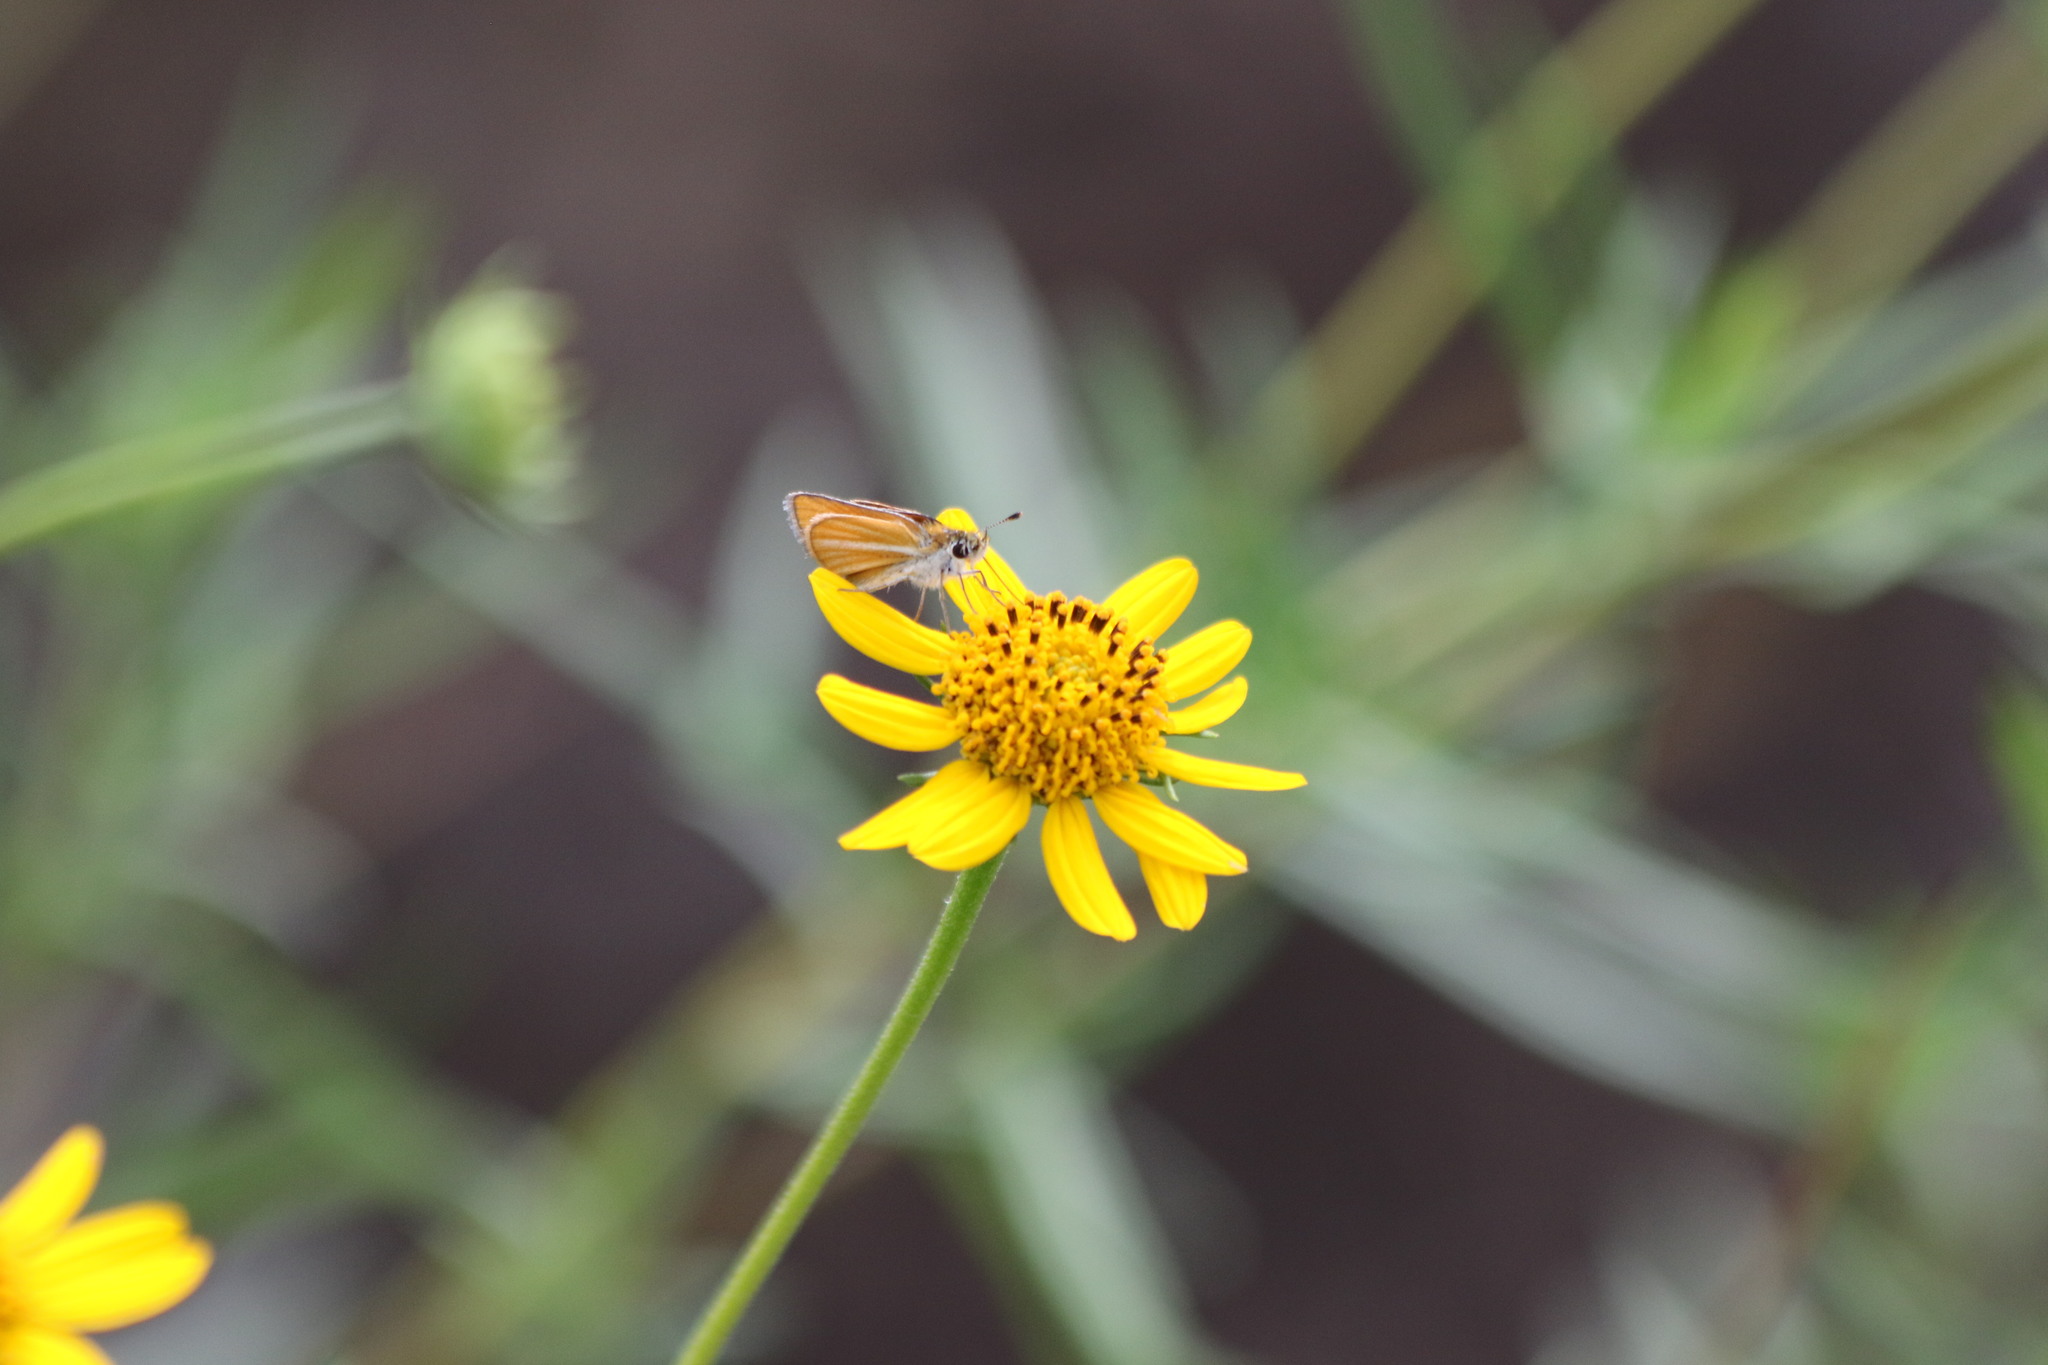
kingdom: Animalia
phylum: Arthropoda
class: Insecta
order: Lepidoptera
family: Hesperiidae
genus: Copaeodes
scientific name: Copaeodes minima
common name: Southern skipperling
